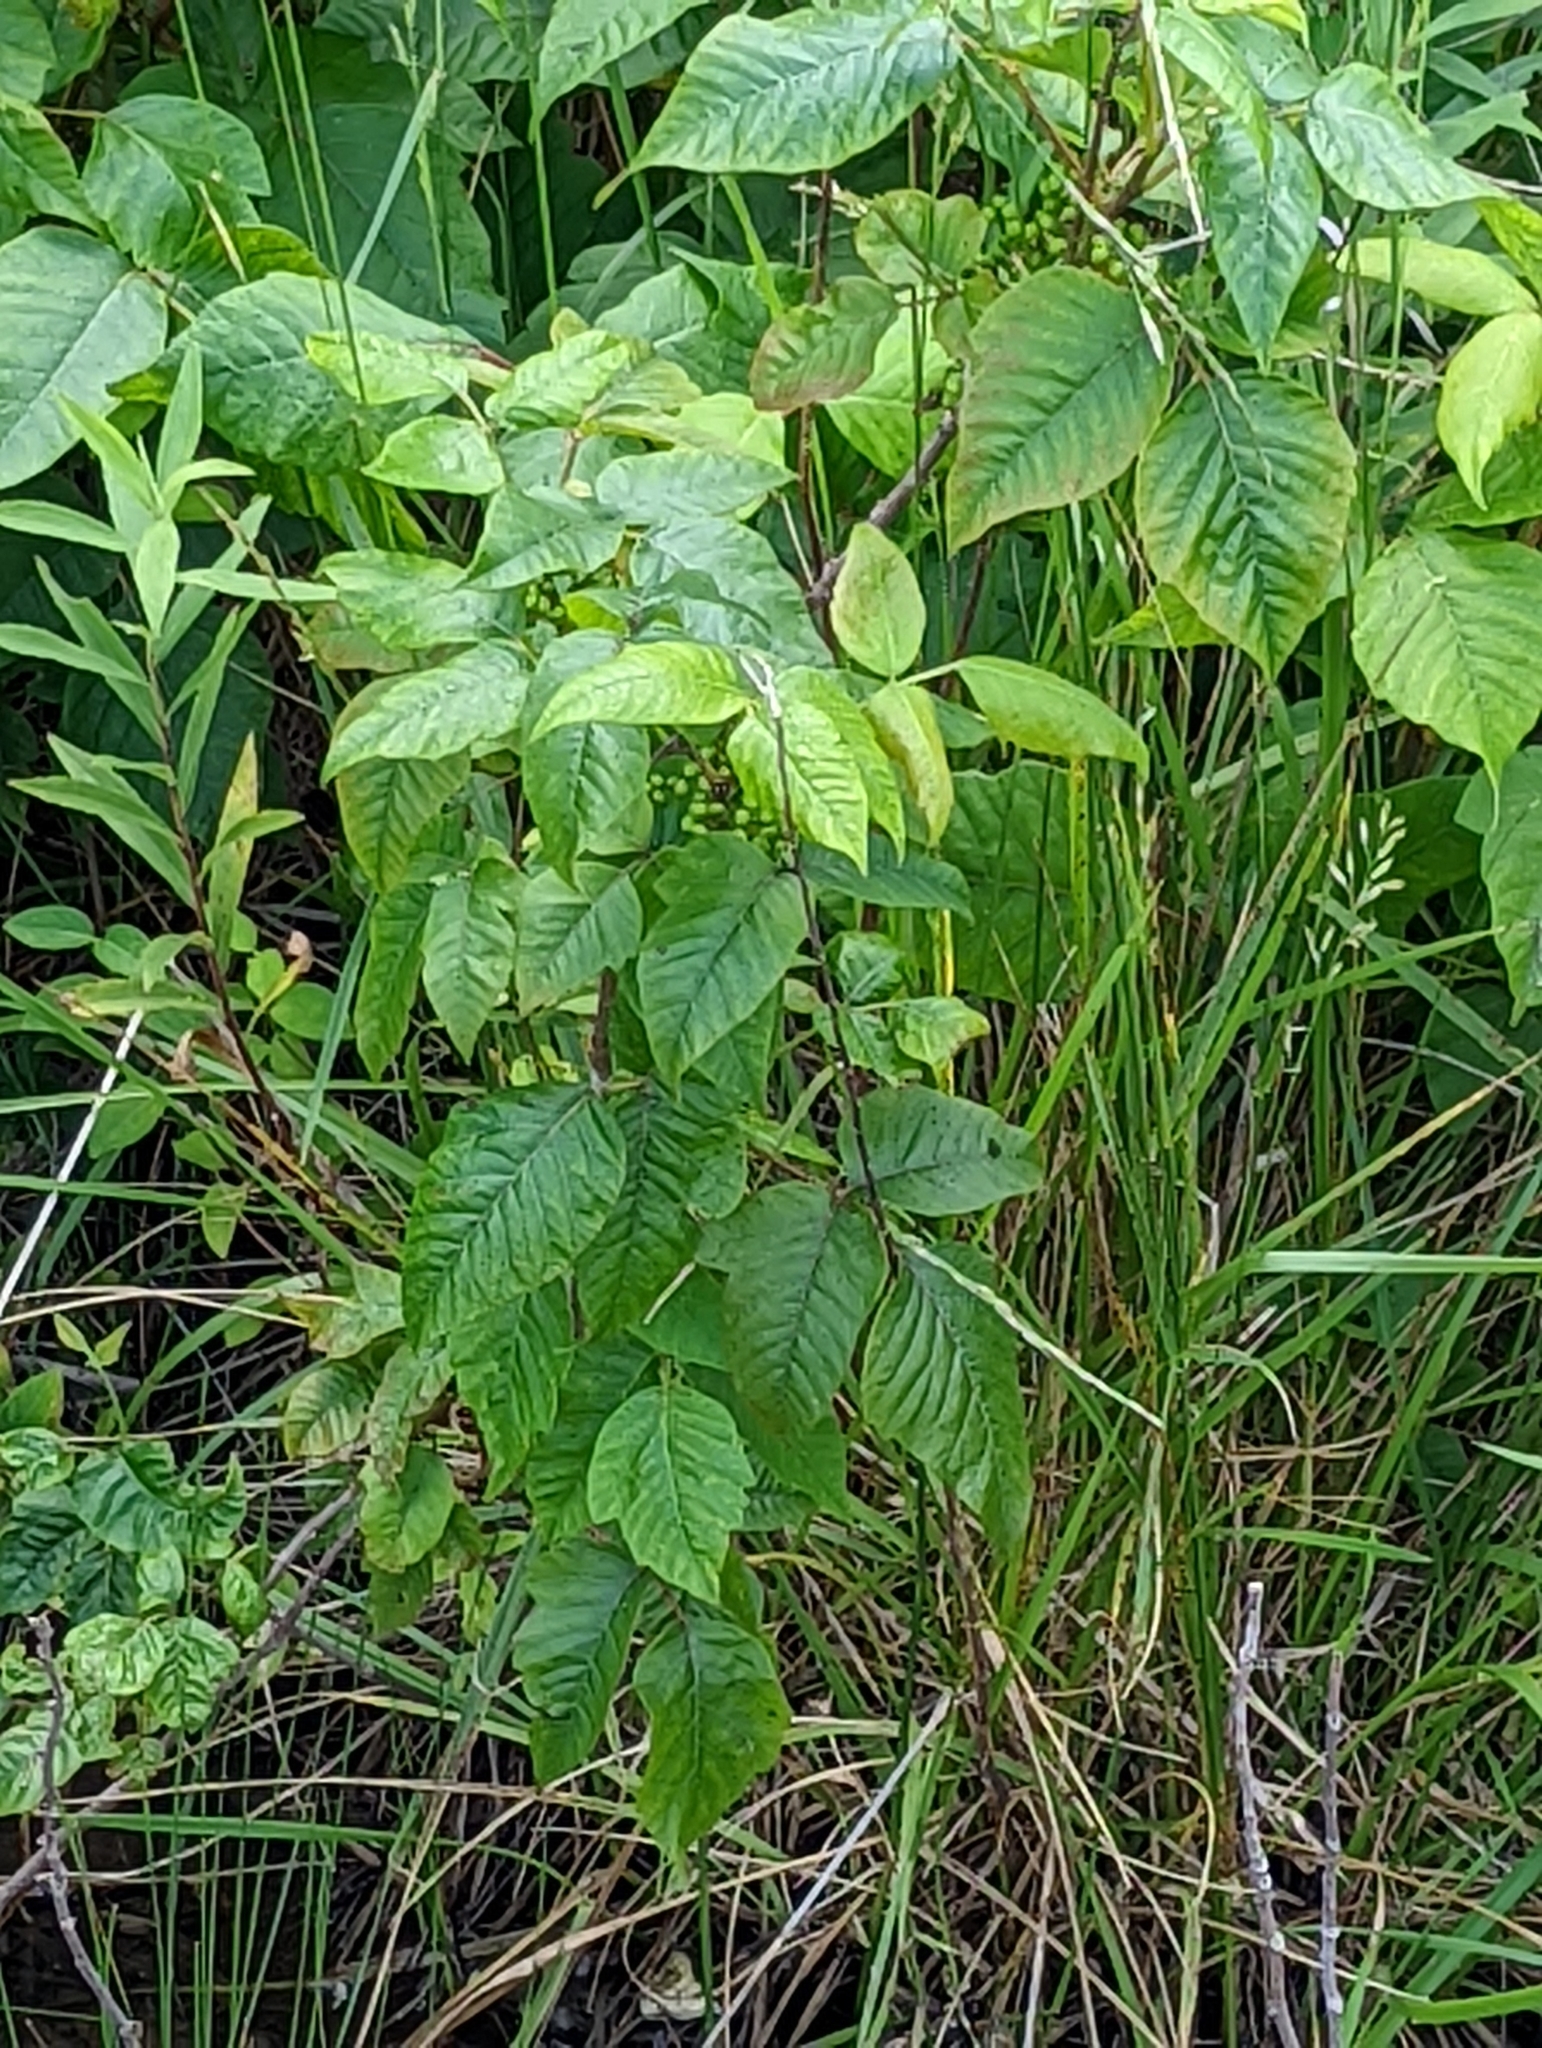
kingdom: Plantae
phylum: Tracheophyta
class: Magnoliopsida
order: Sapindales
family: Anacardiaceae
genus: Toxicodendron
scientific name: Toxicodendron radicans
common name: Poison ivy
